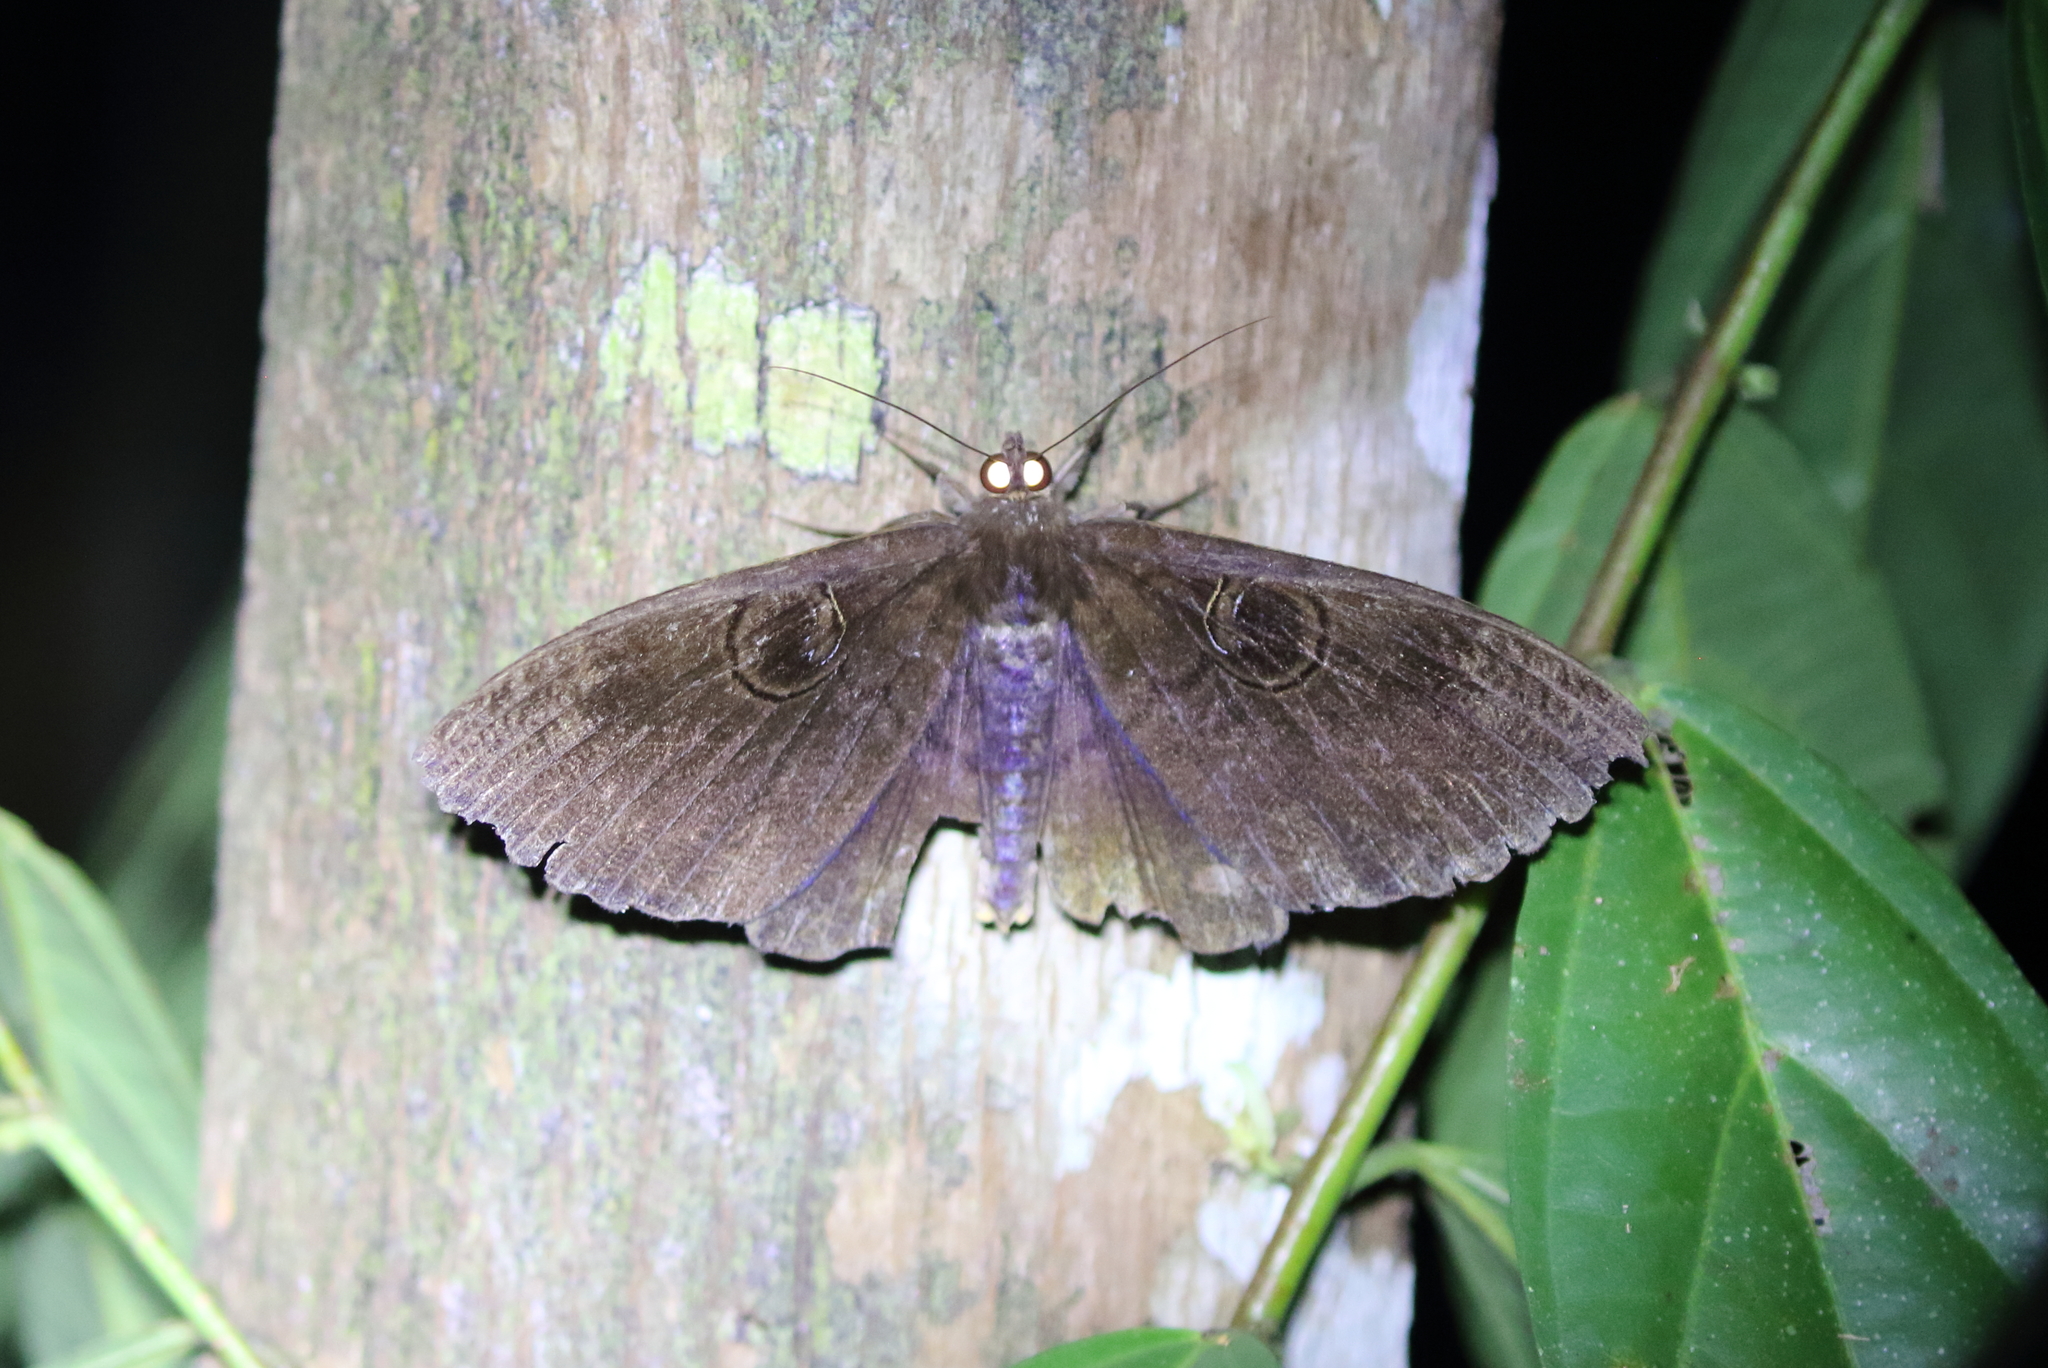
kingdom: Animalia
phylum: Arthropoda
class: Insecta
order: Lepidoptera
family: Erebidae
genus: Erebus
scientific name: Erebus caprimulgus
